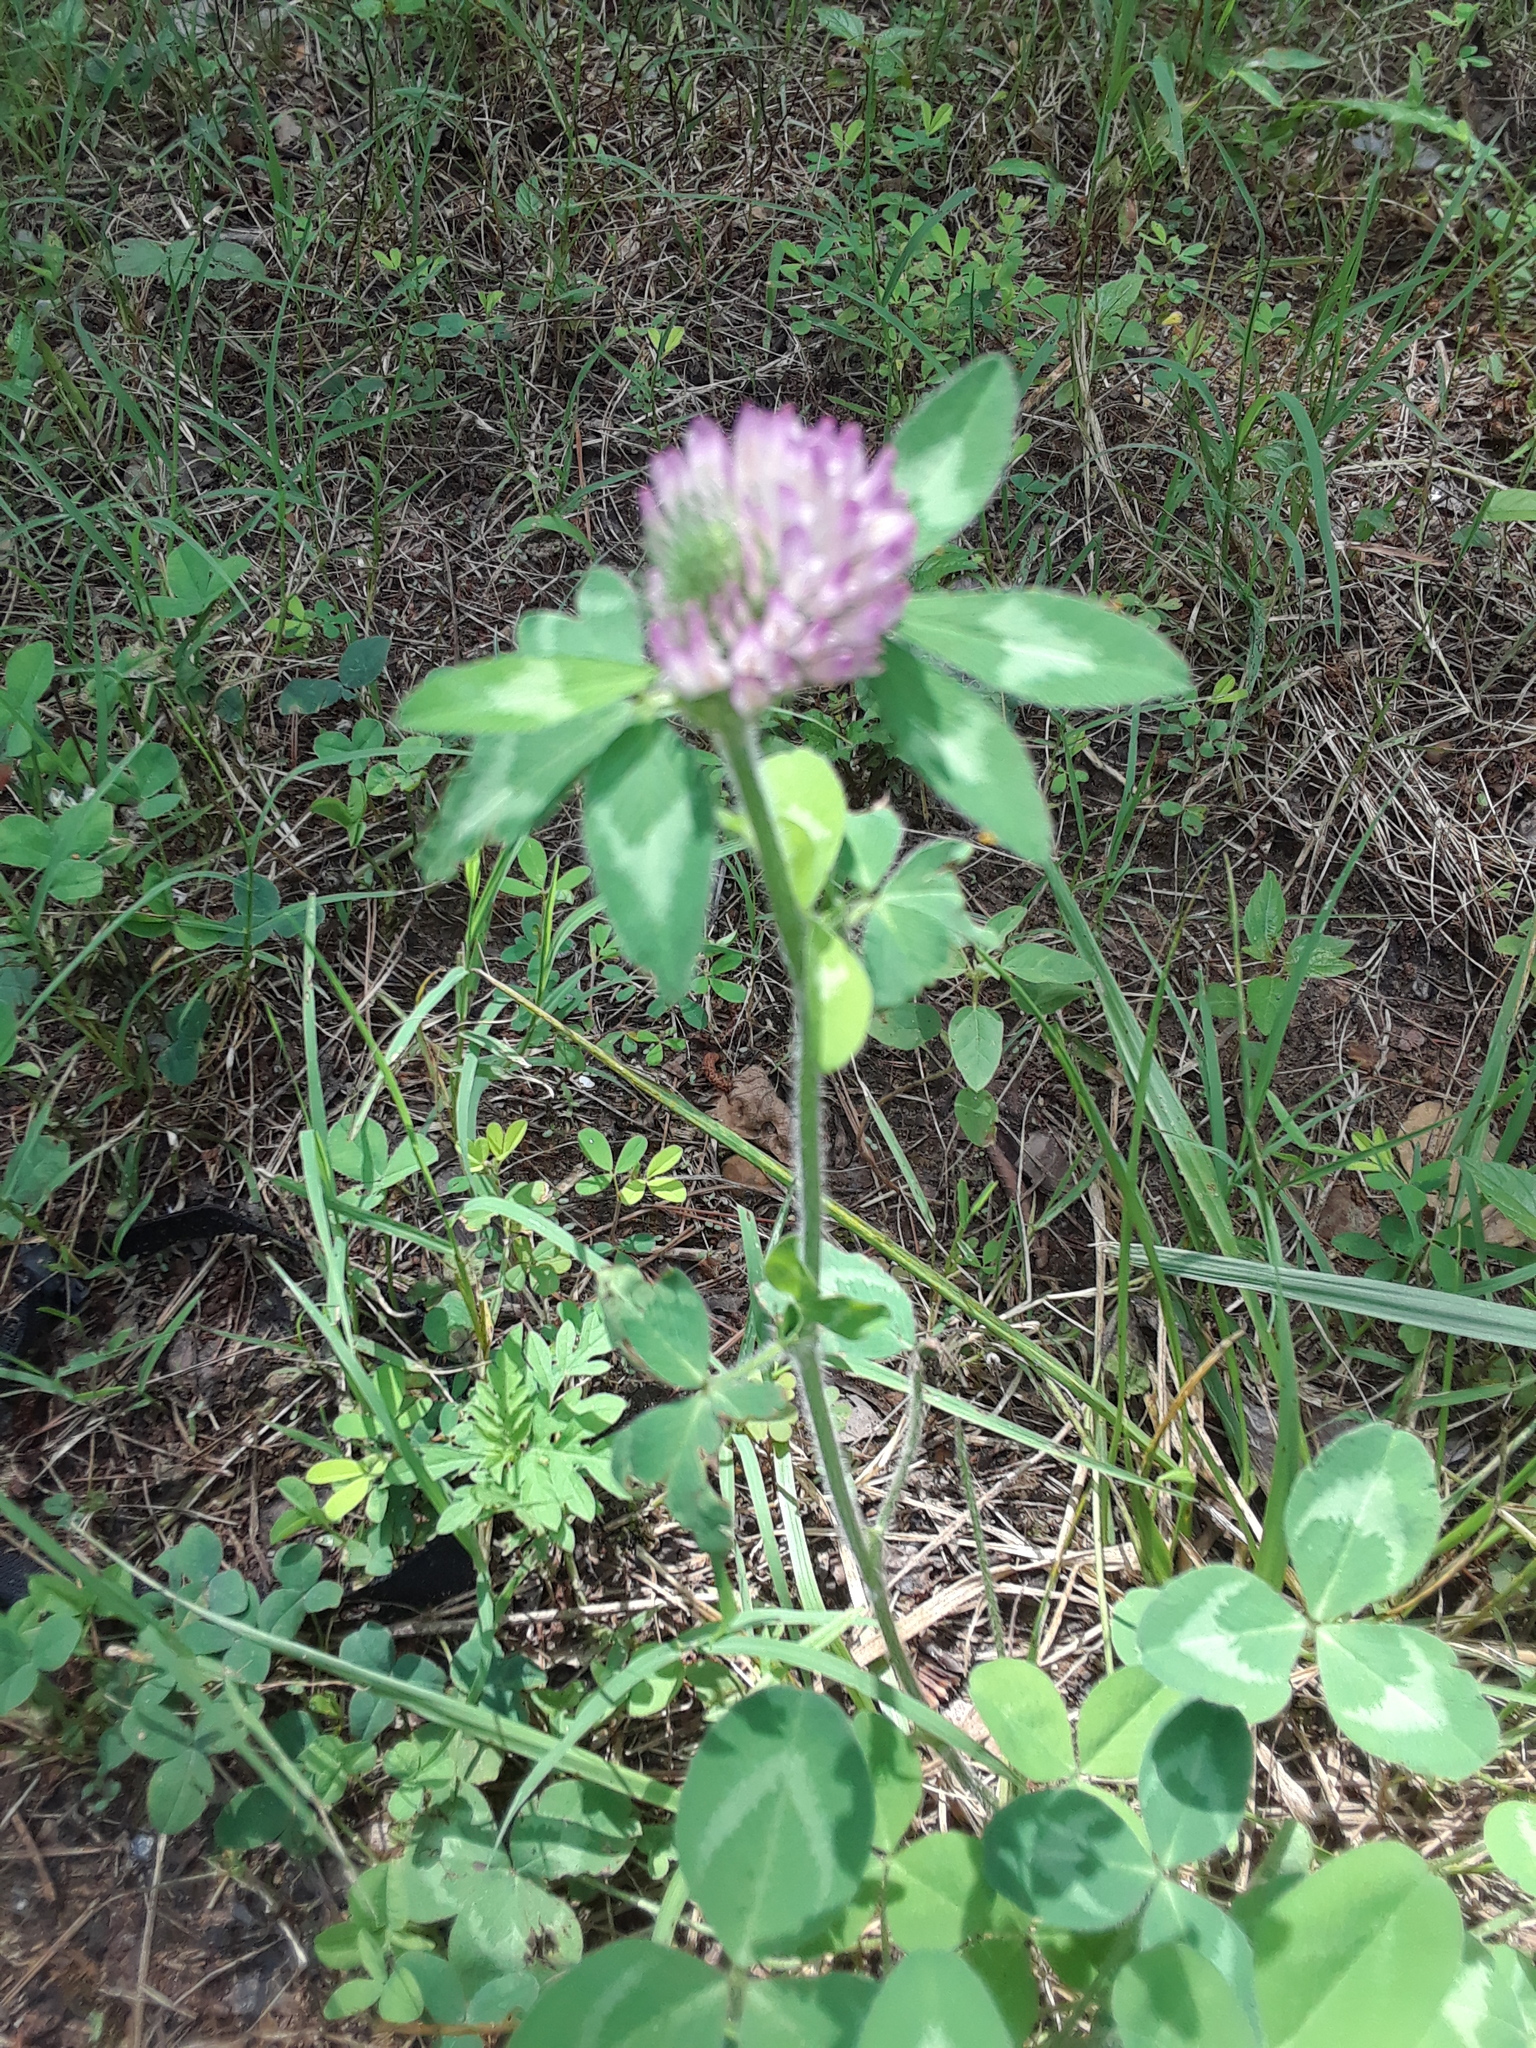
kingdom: Plantae
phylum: Tracheophyta
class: Magnoliopsida
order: Fabales
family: Fabaceae
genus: Trifolium
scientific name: Trifolium pratense
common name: Red clover
